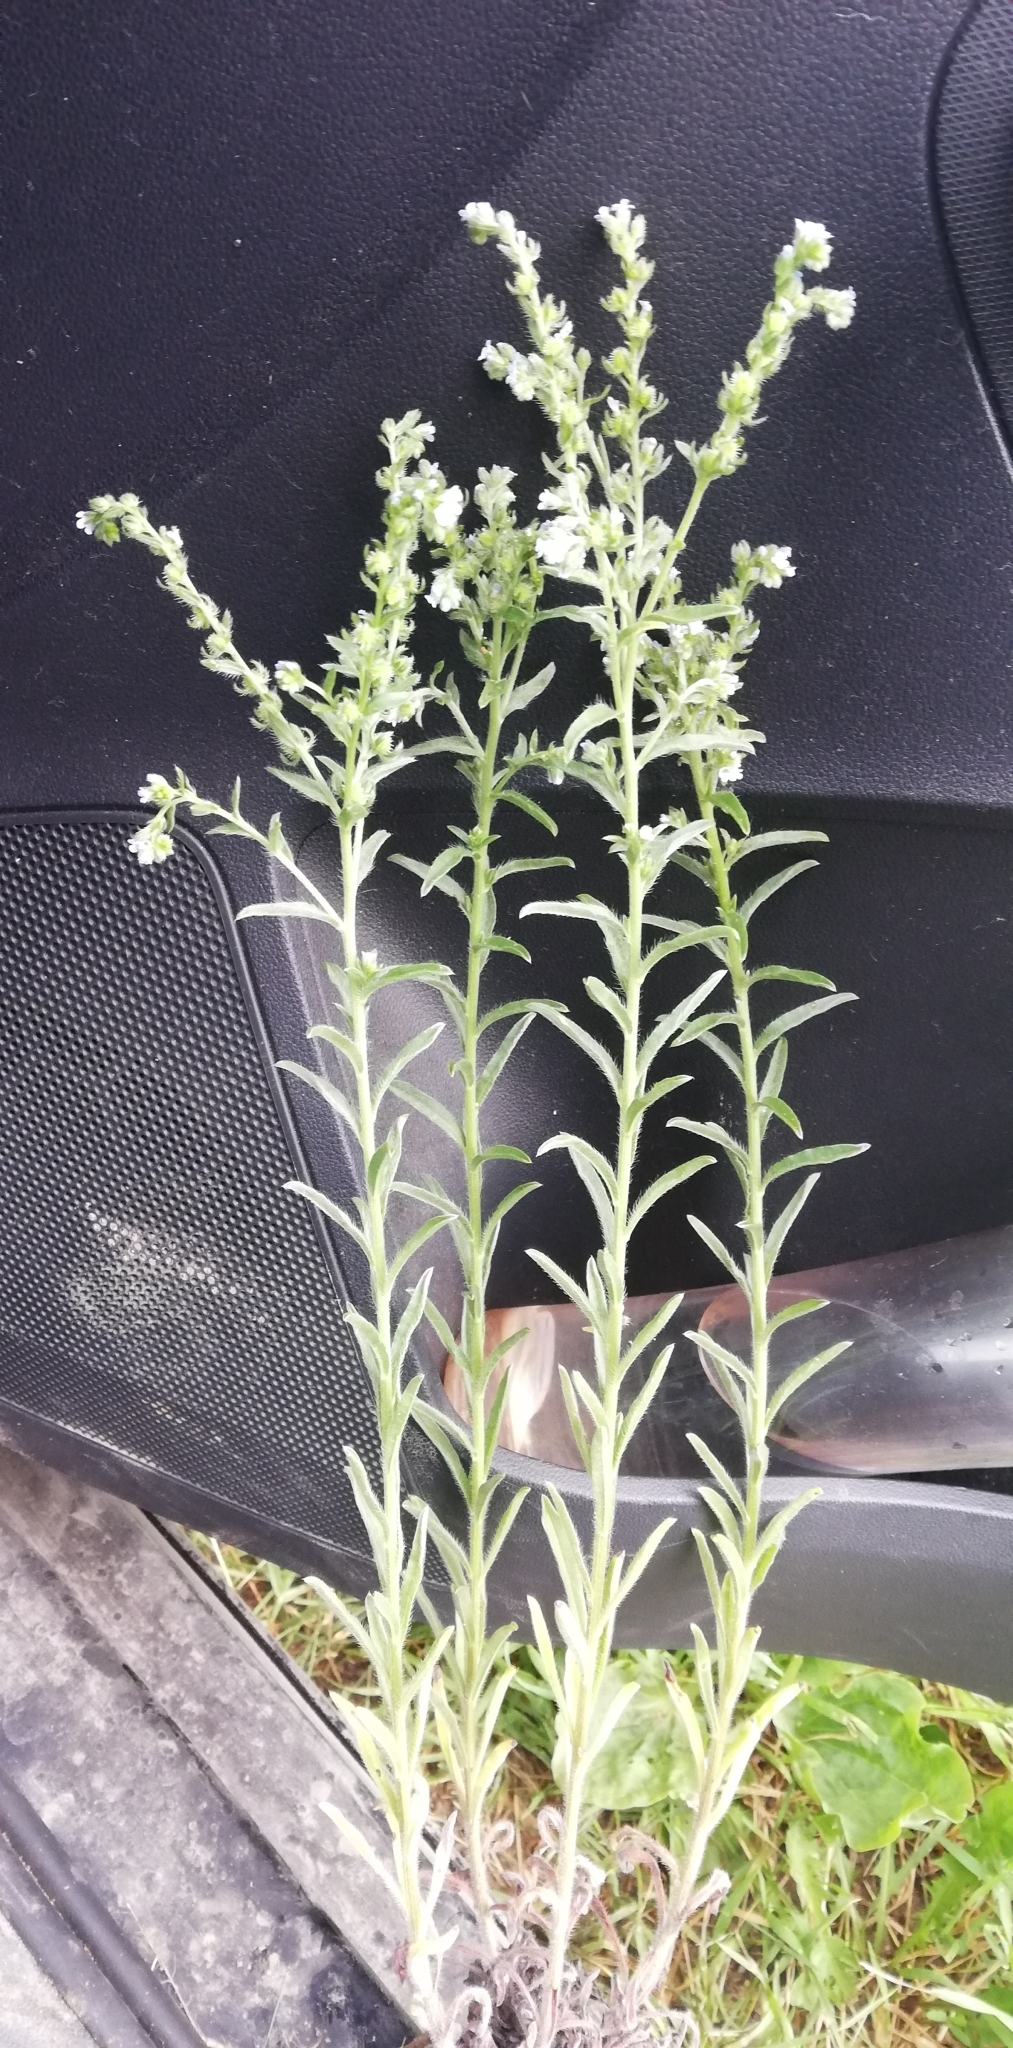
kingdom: Plantae
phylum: Tracheophyta
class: Magnoliopsida
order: Boraginales
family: Boraginaceae
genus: Lappula
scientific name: Lappula squarrosa
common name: European stickseed
